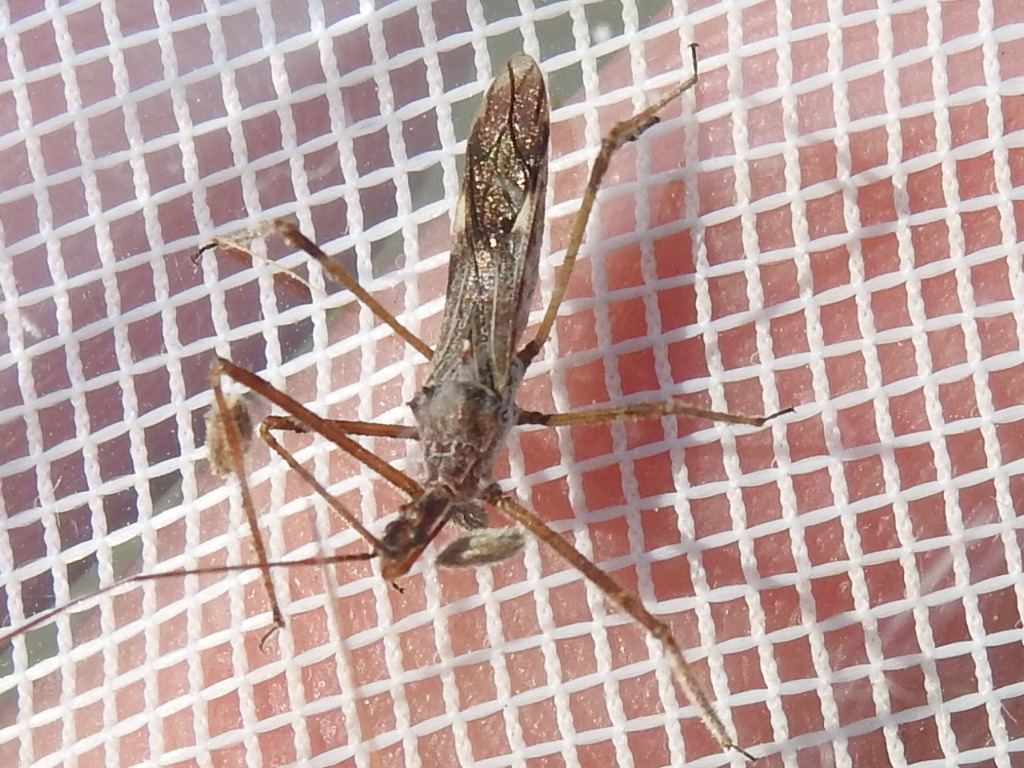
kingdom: Animalia
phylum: Arthropoda
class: Insecta
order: Hemiptera
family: Reduviidae
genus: Zelus
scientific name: Zelus tetracanthus
